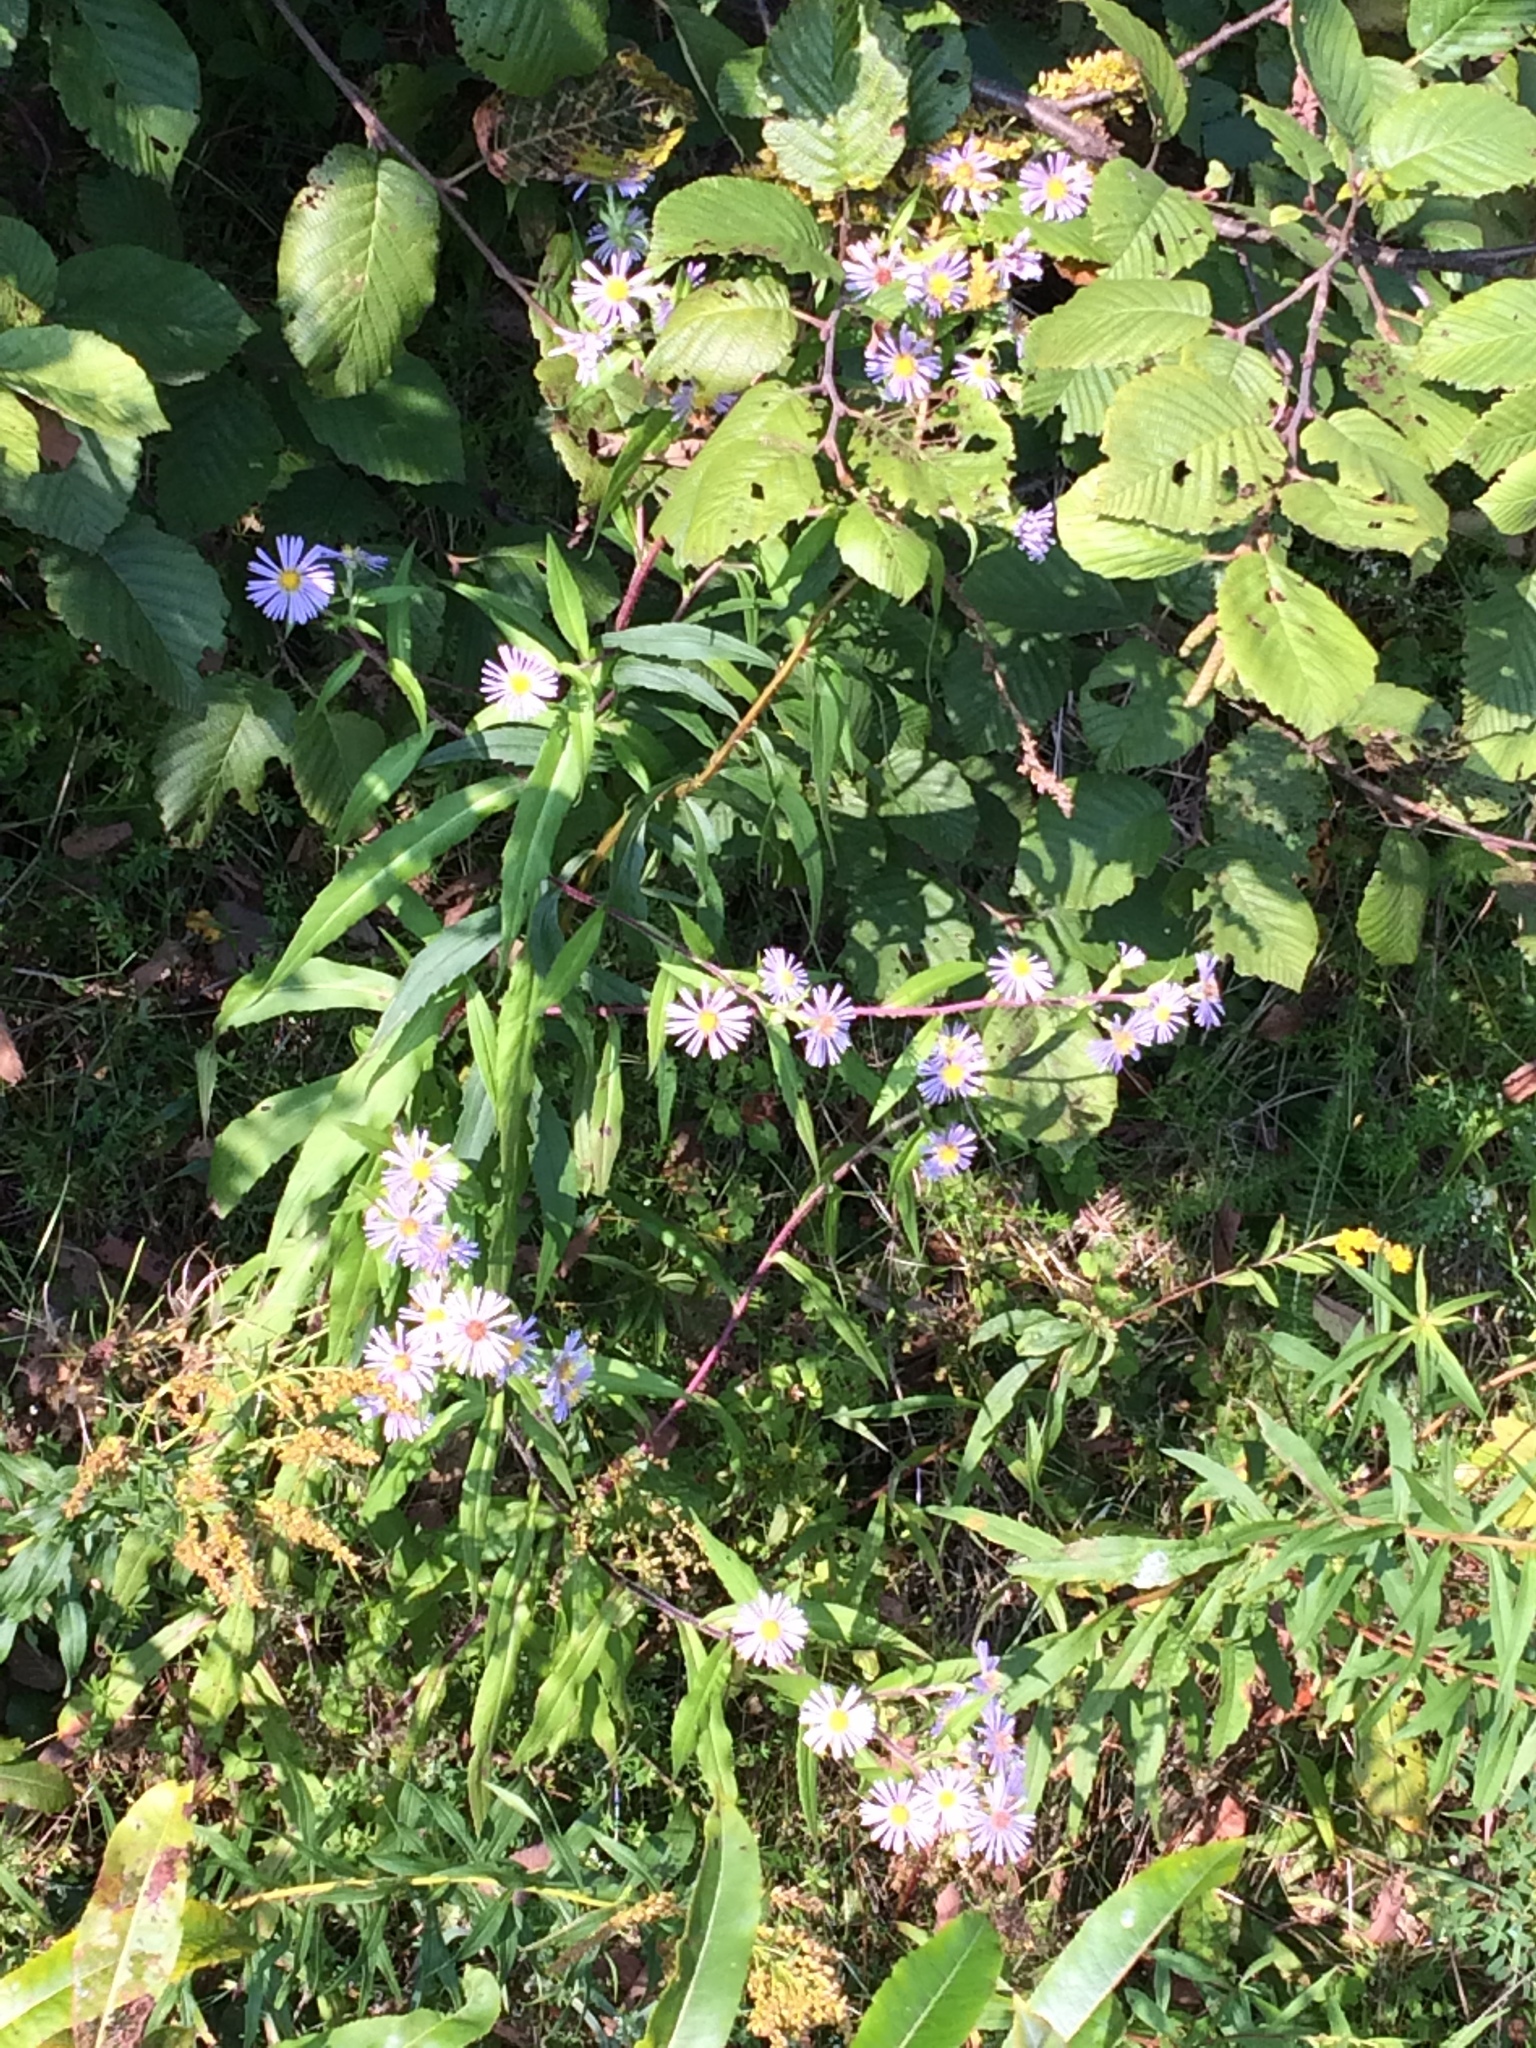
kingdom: Plantae
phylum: Tracheophyta
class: Magnoliopsida
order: Asterales
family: Asteraceae
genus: Symphyotrichum
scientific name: Symphyotrichum puniceum
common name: Bog aster
